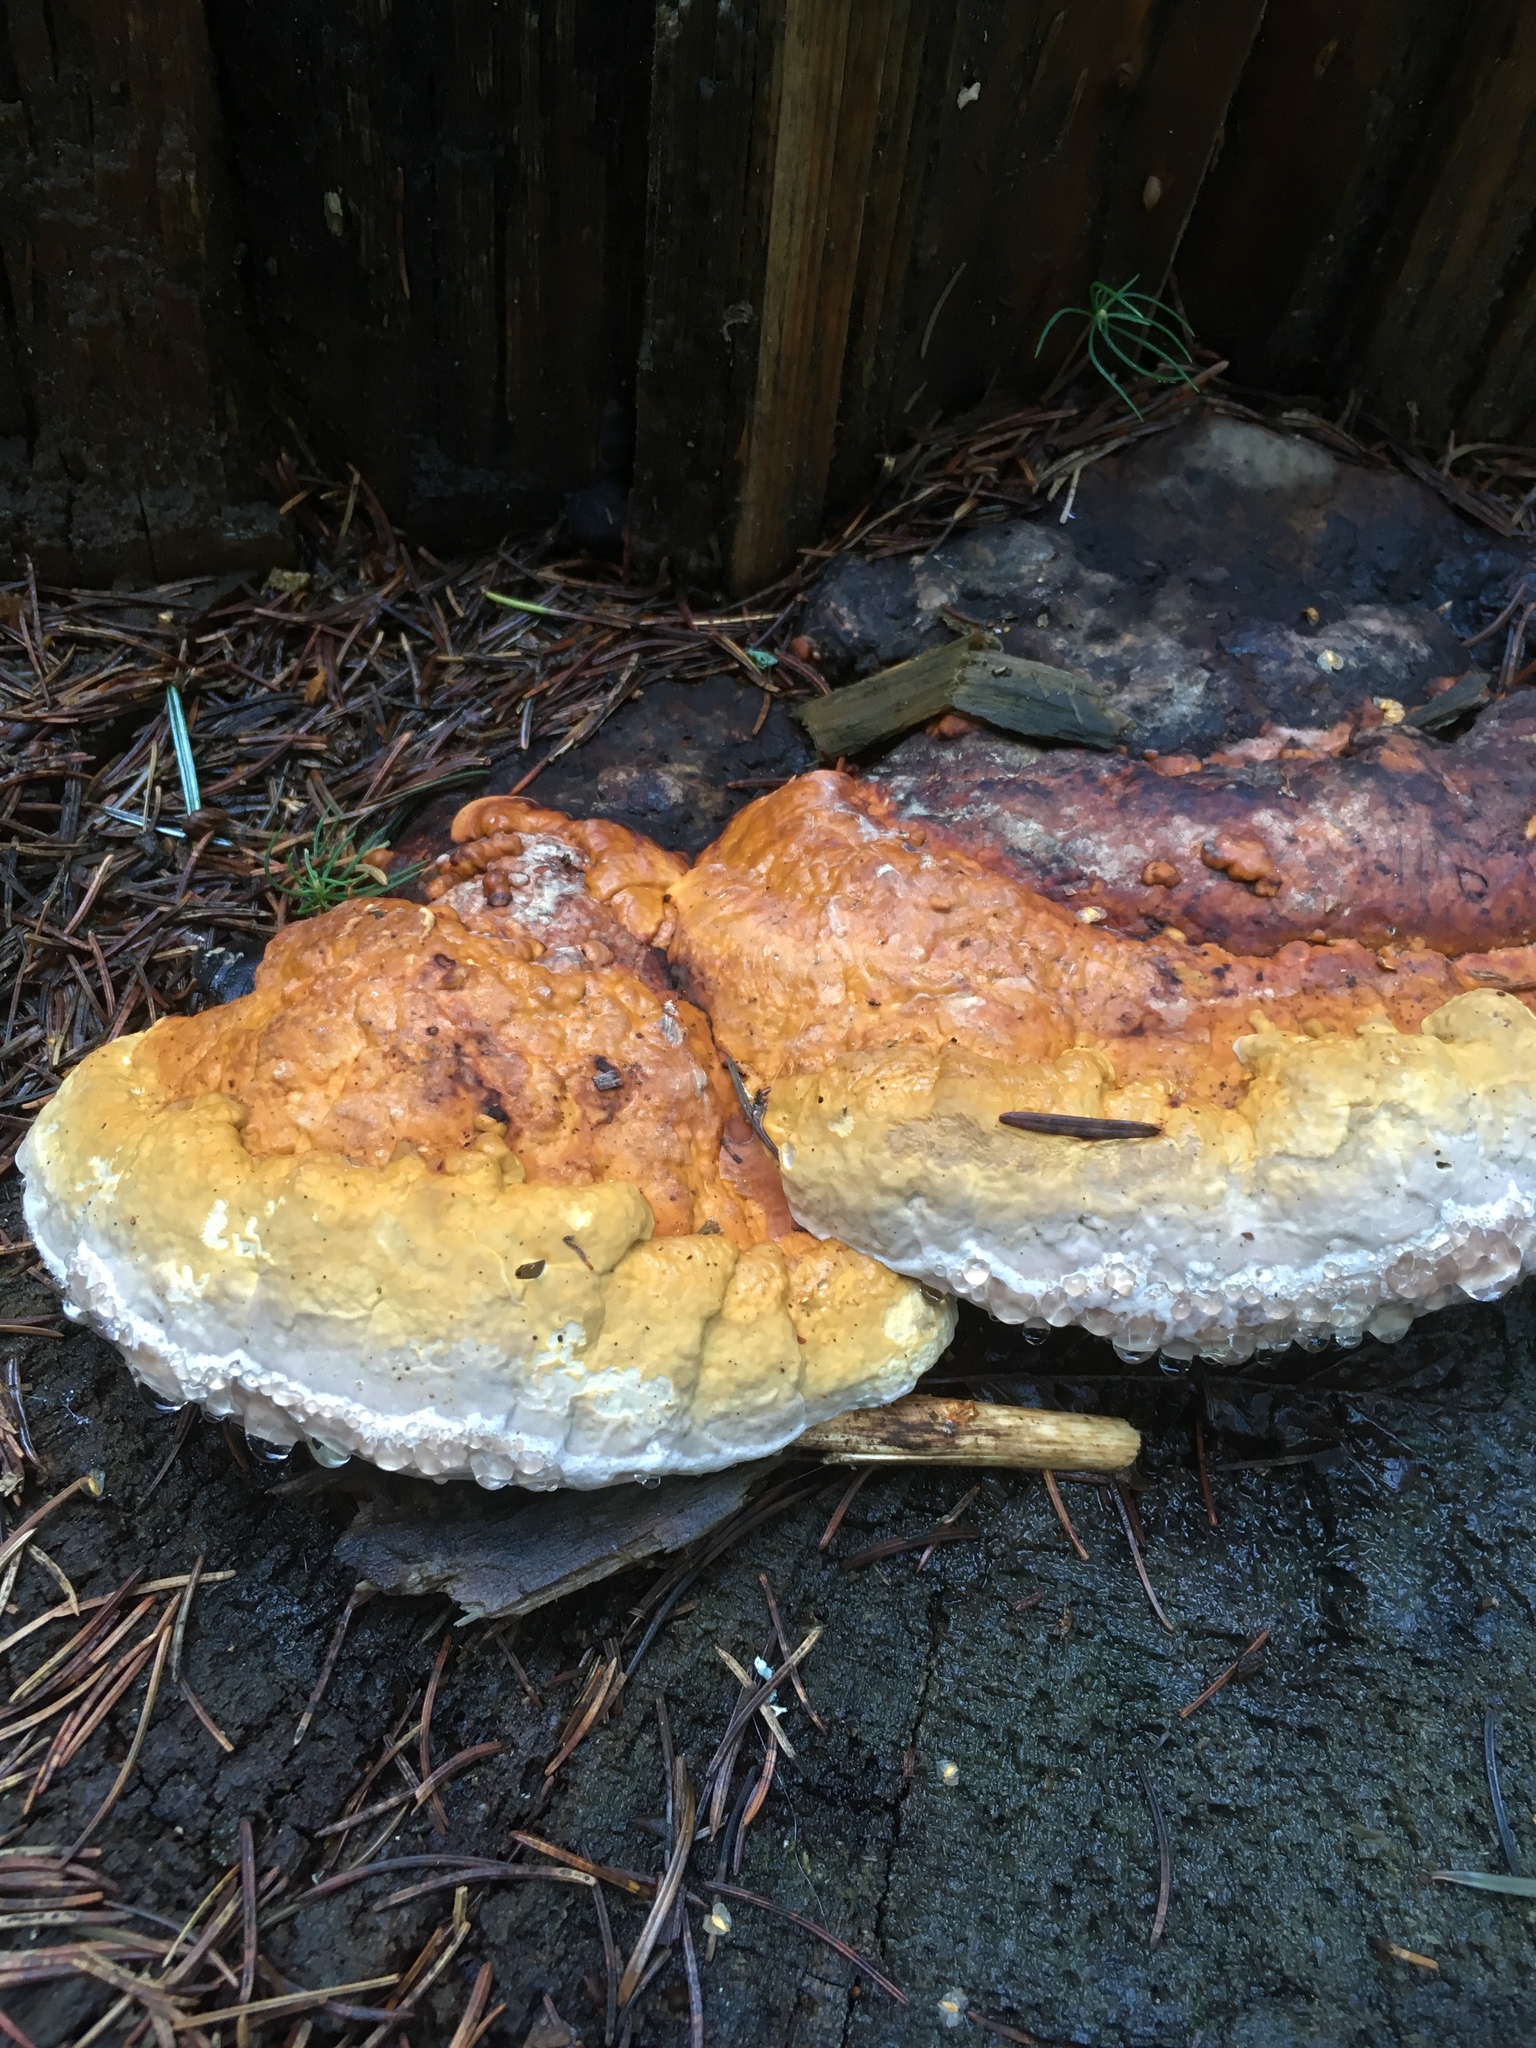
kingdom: Fungi
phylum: Basidiomycota
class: Agaricomycetes
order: Polyporales
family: Fomitopsidaceae
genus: Fomitopsis
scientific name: Fomitopsis pinicola
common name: Red-belted bracket
